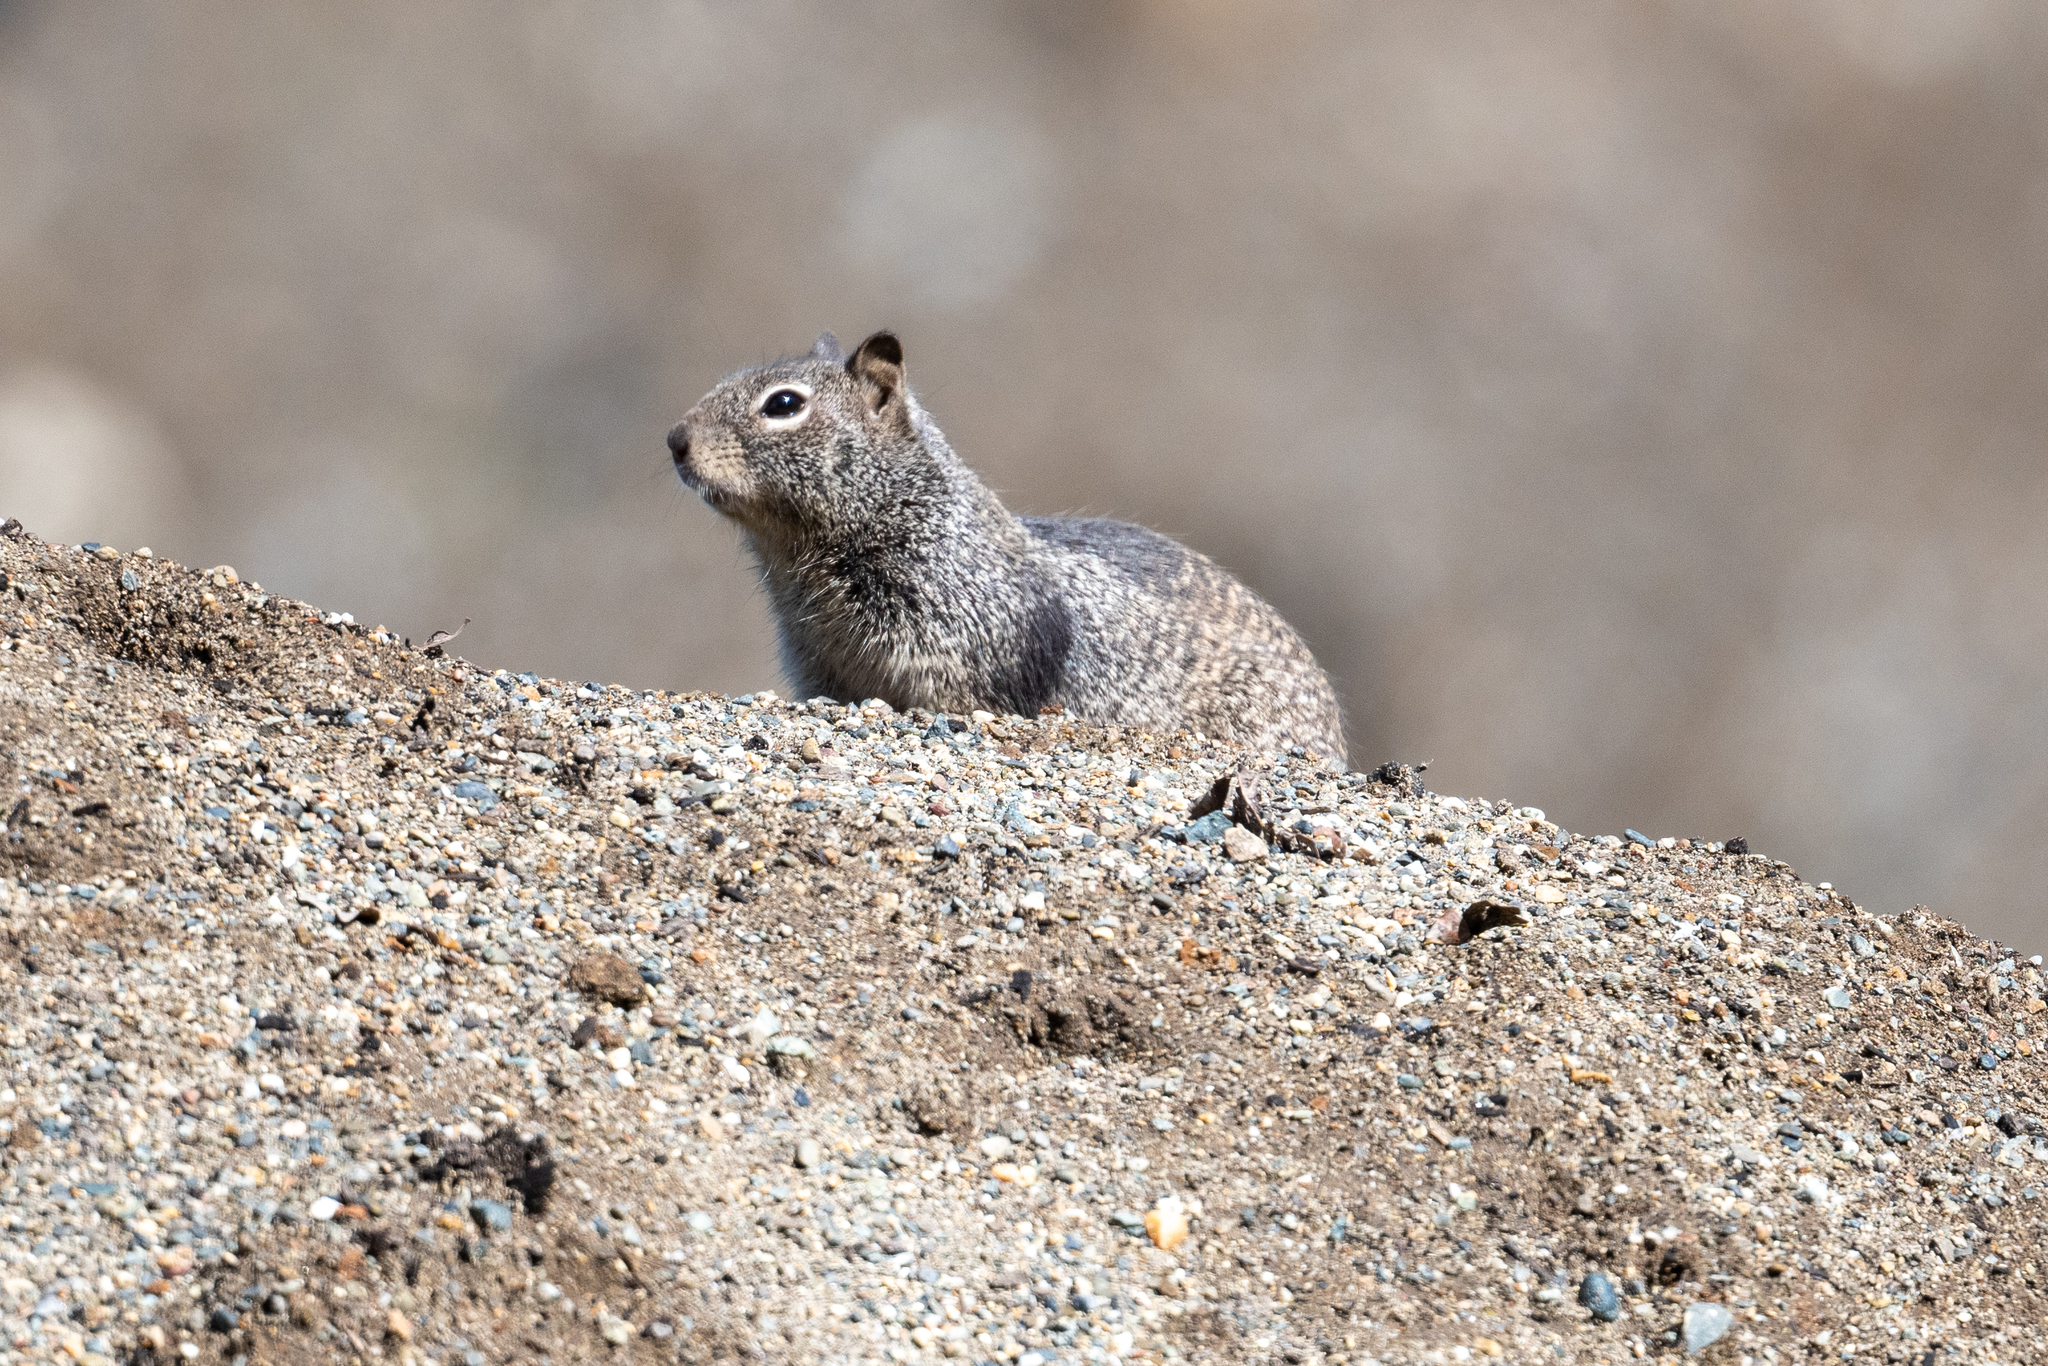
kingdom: Animalia
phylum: Chordata
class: Mammalia
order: Rodentia
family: Sciuridae
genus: Otospermophilus
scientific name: Otospermophilus beecheyi
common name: California ground squirrel
